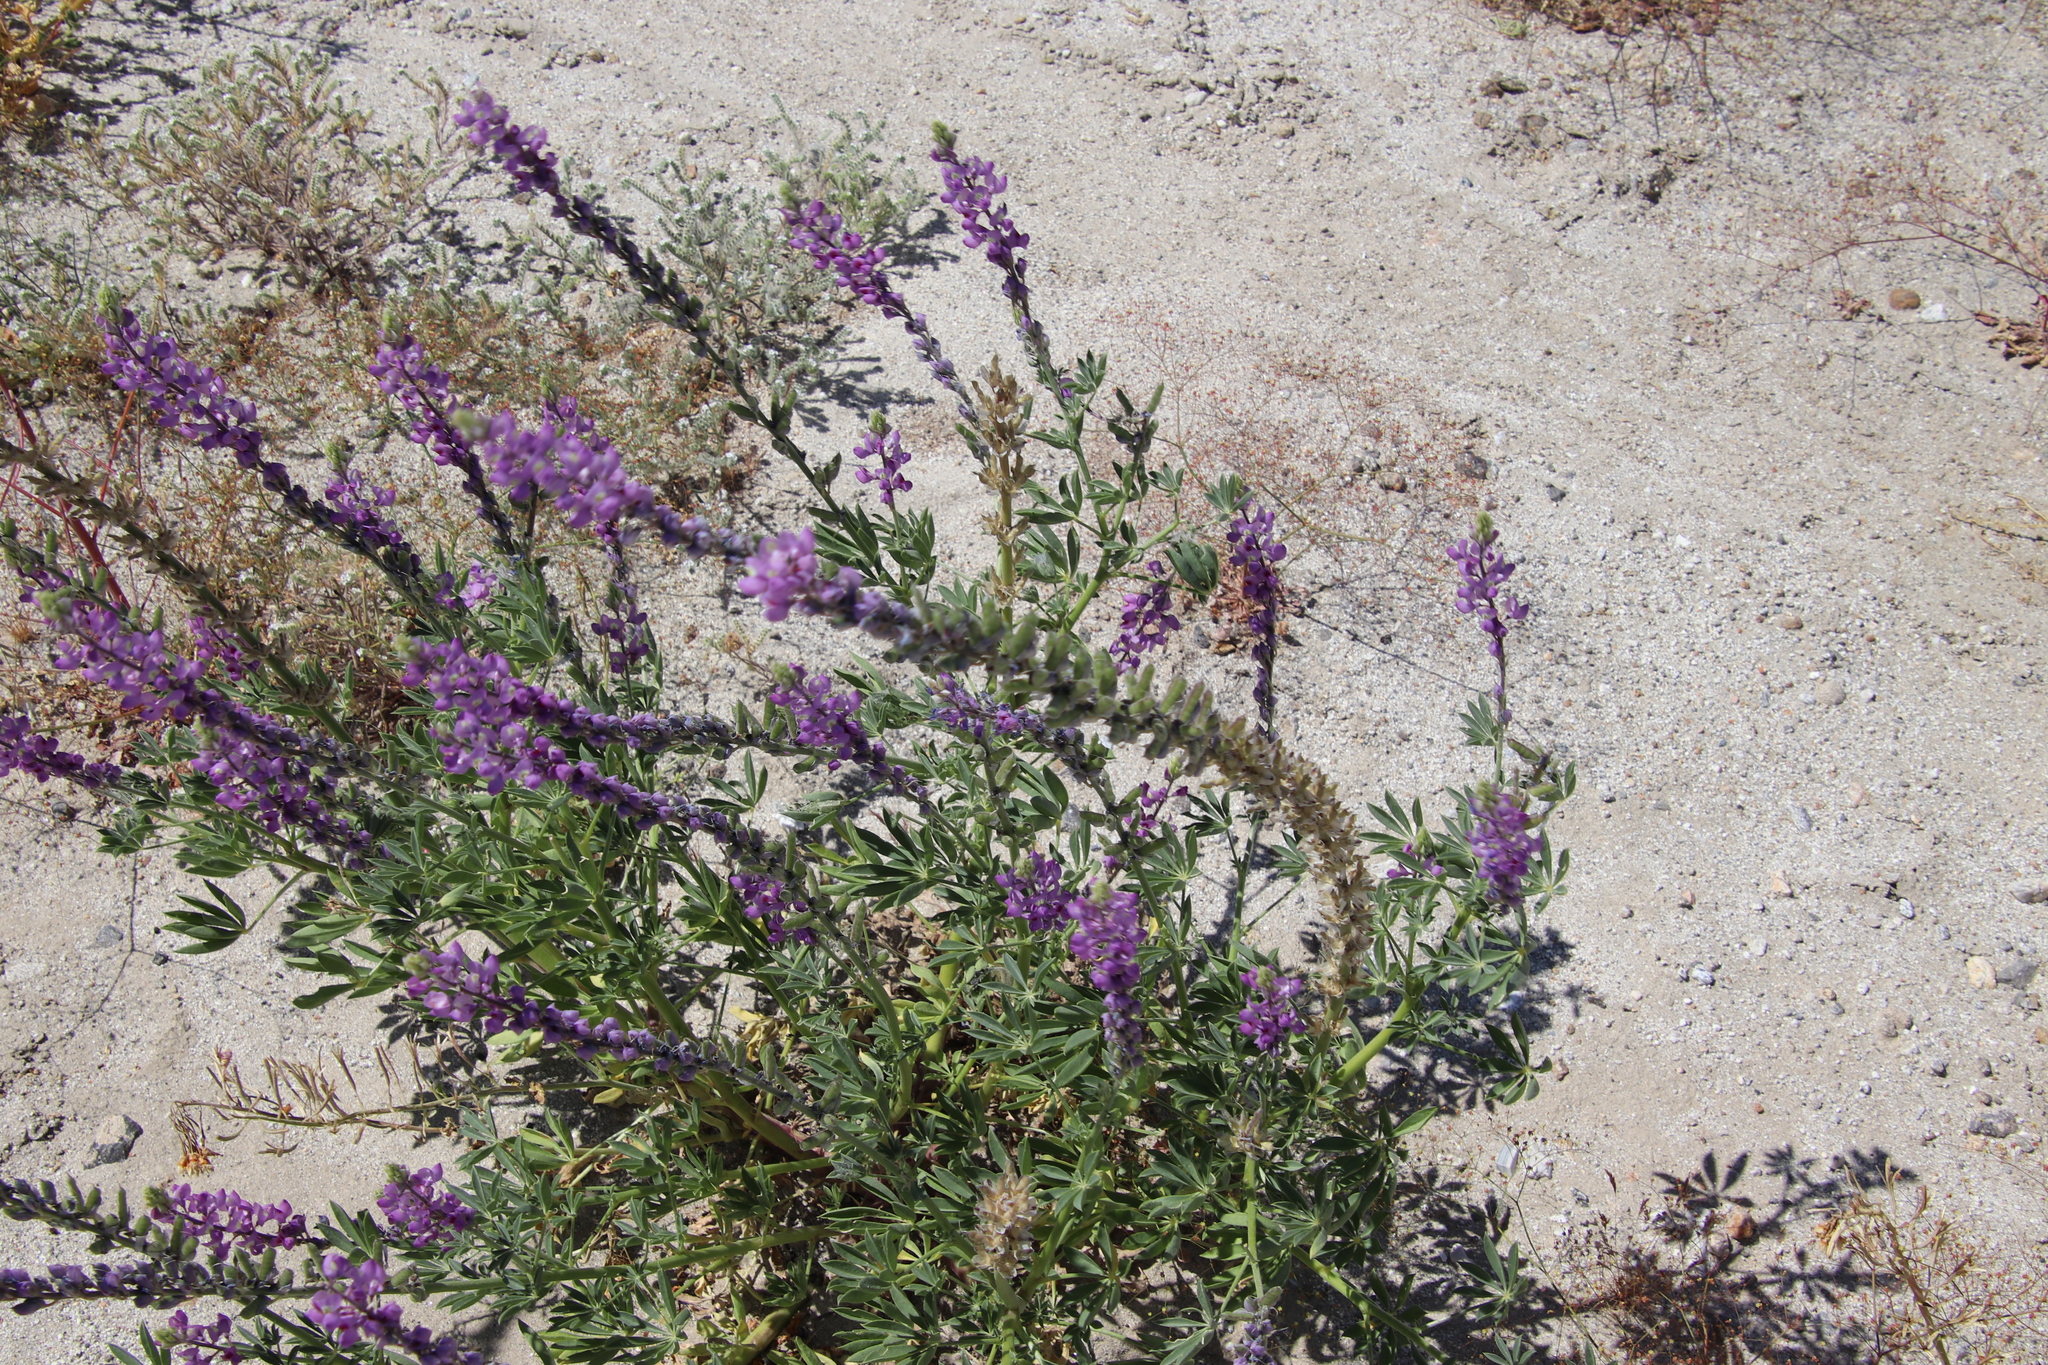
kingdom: Plantae
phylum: Tracheophyta
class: Magnoliopsida
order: Fabales
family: Fabaceae
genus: Lupinus
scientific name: Lupinus arizonicus
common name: Arizona lupine
